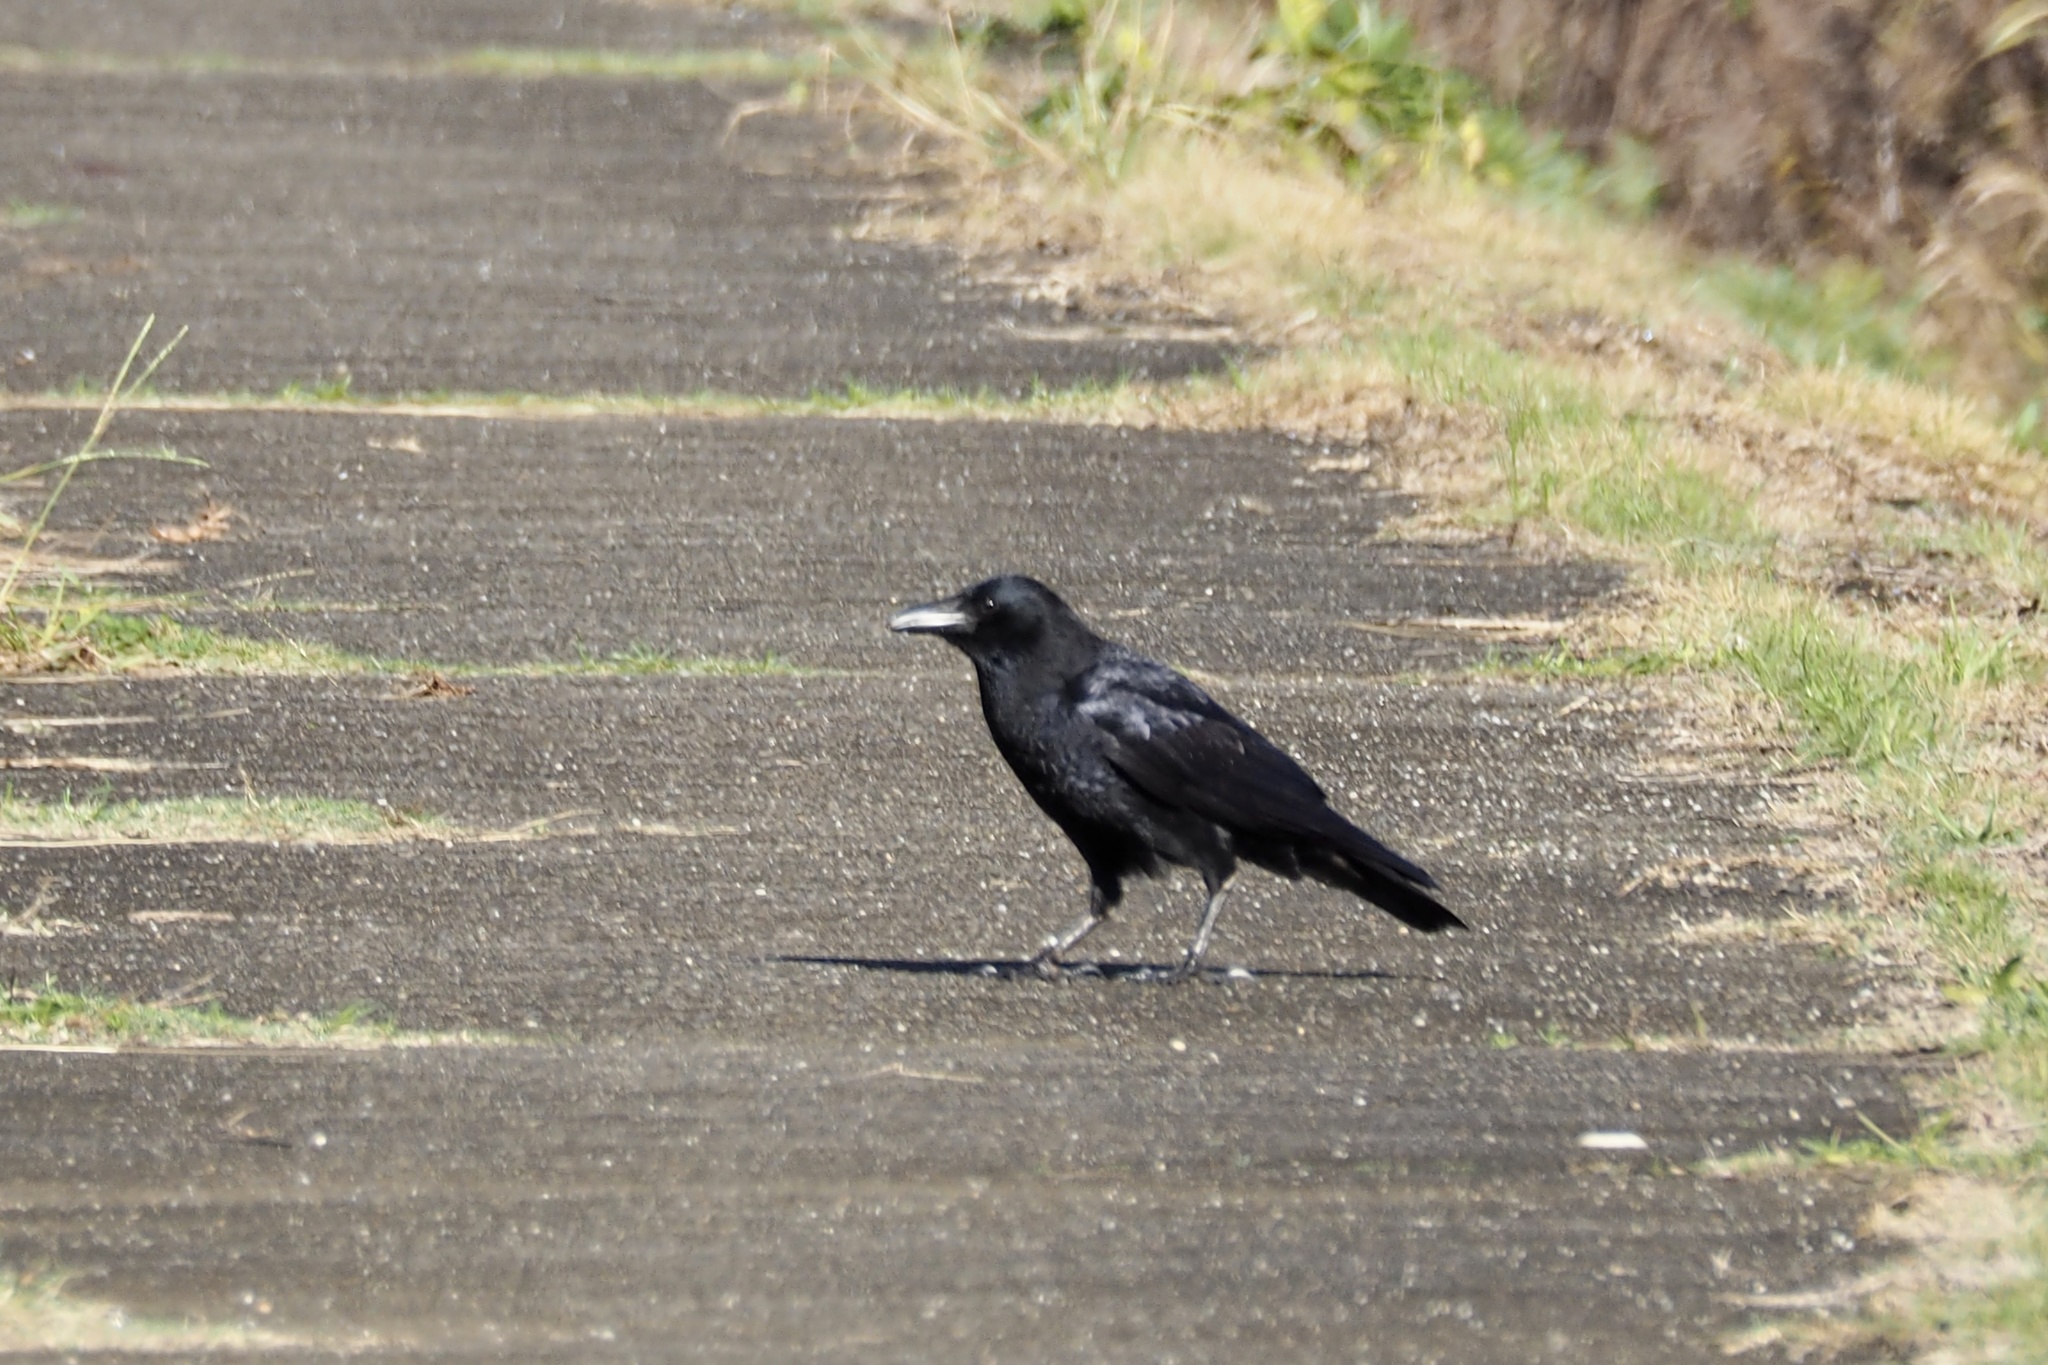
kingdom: Animalia
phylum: Chordata
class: Aves
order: Passeriformes
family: Corvidae
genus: Corvus
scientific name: Corvus corone
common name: Carrion crow
